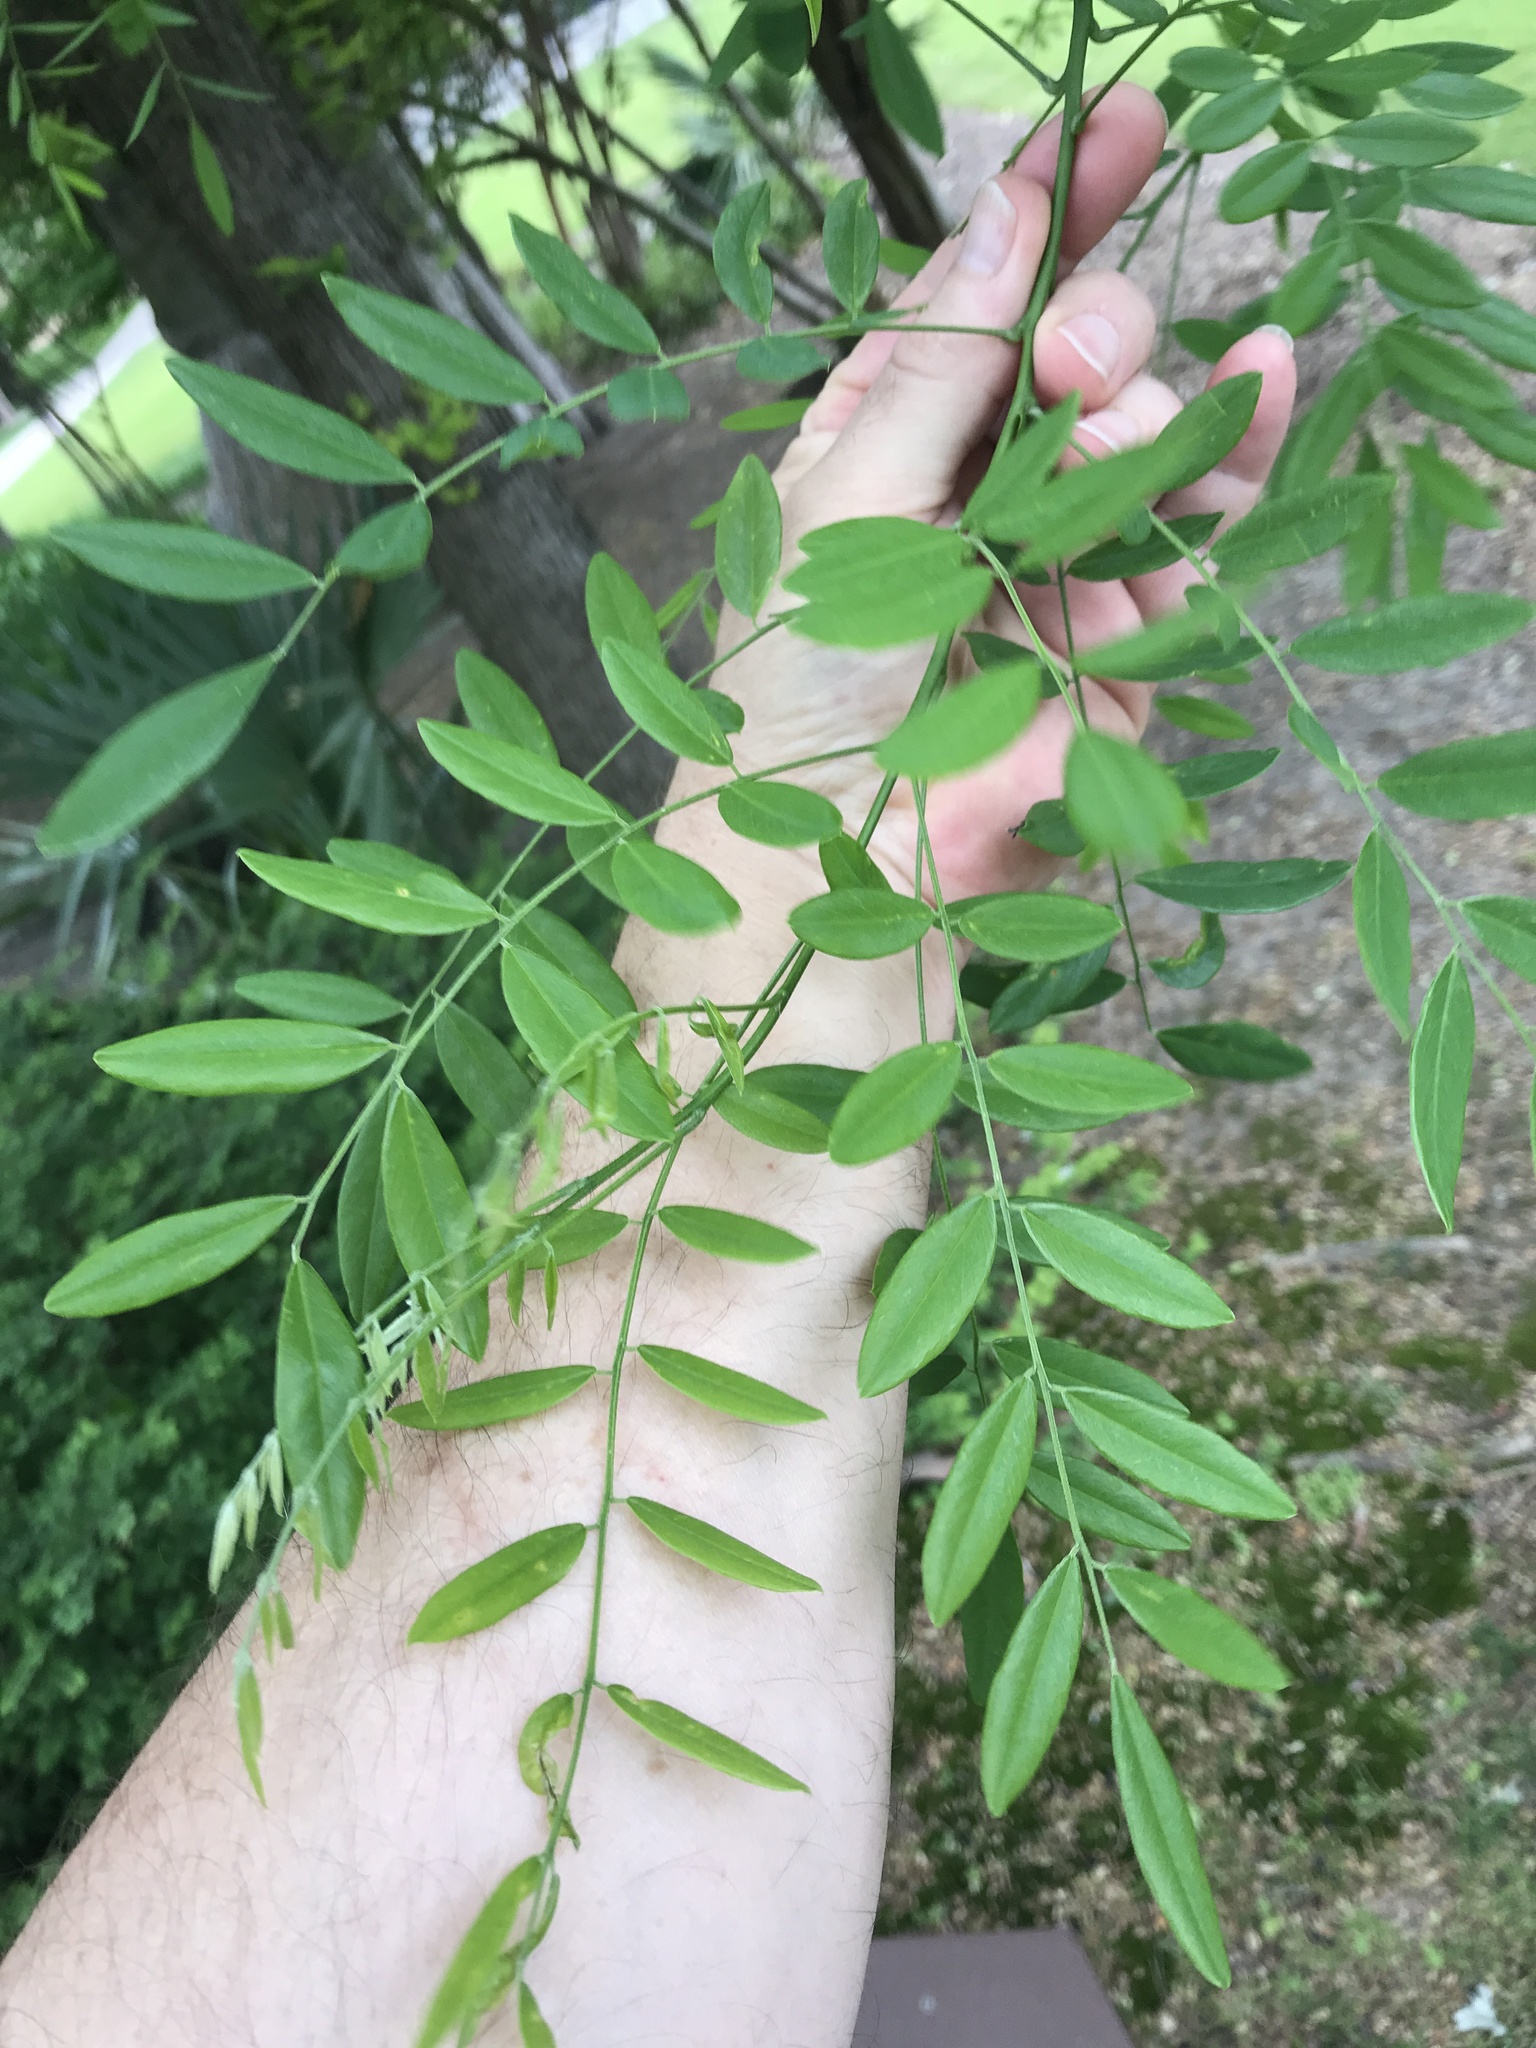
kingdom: Plantae
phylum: Tracheophyta
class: Magnoliopsida
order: Fabales
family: Fabaceae
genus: Styphnolobium
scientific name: Styphnolobium affine
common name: Texas sophora
